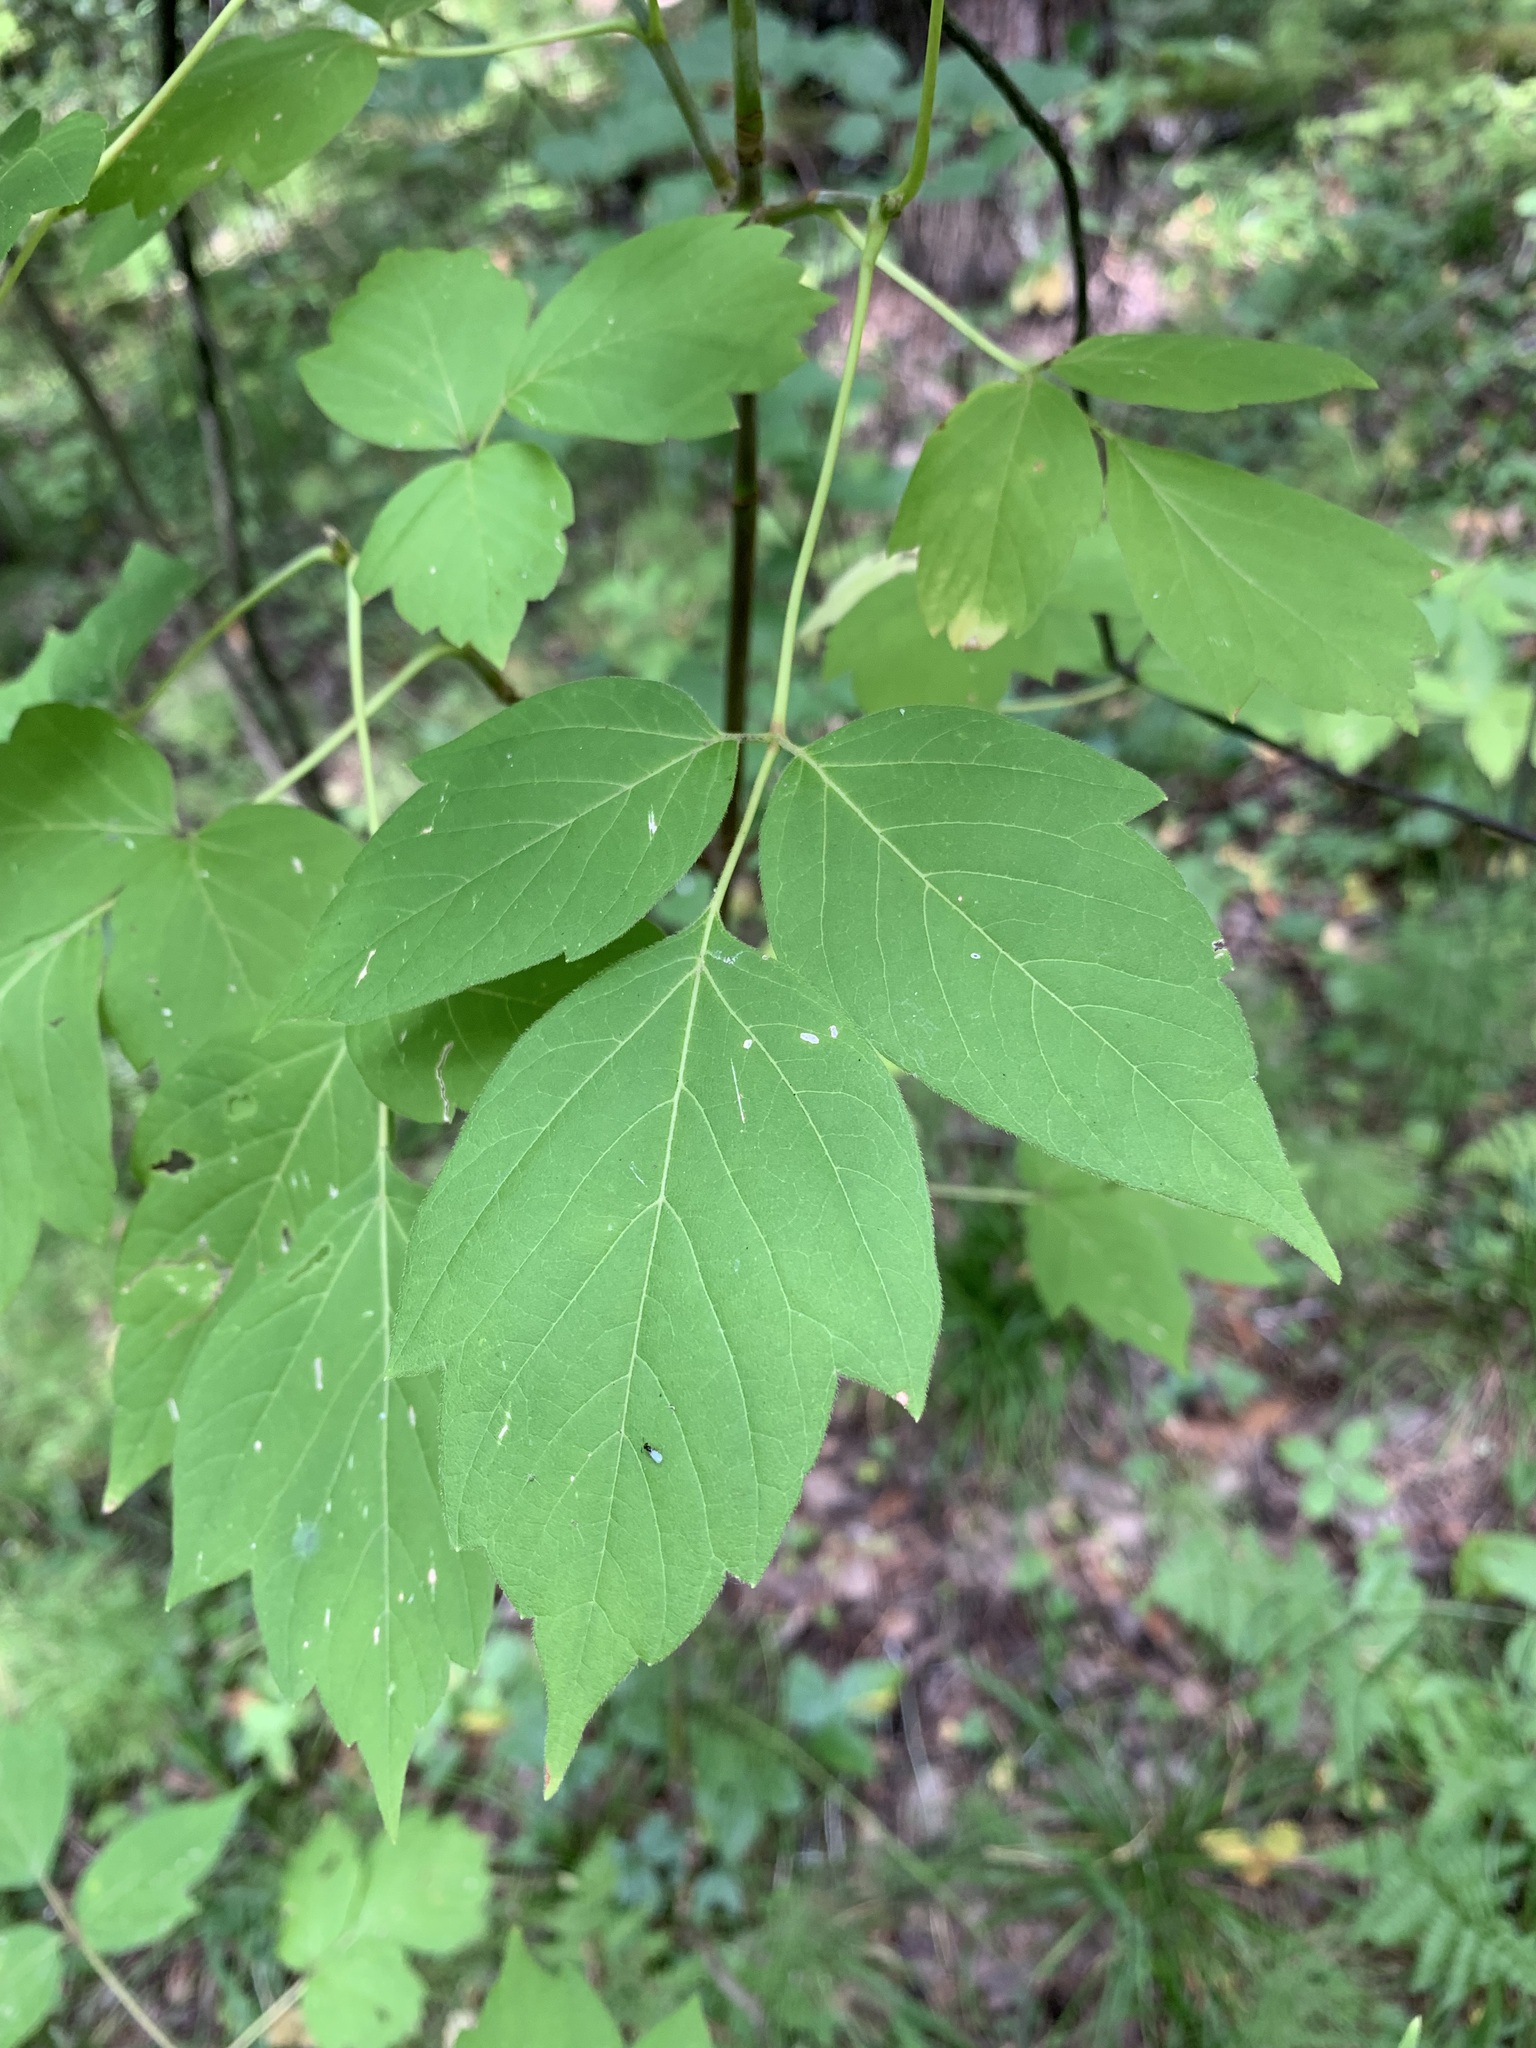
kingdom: Plantae
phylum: Tracheophyta
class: Magnoliopsida
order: Sapindales
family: Sapindaceae
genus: Acer
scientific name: Acer negundo
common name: Ashleaf maple
